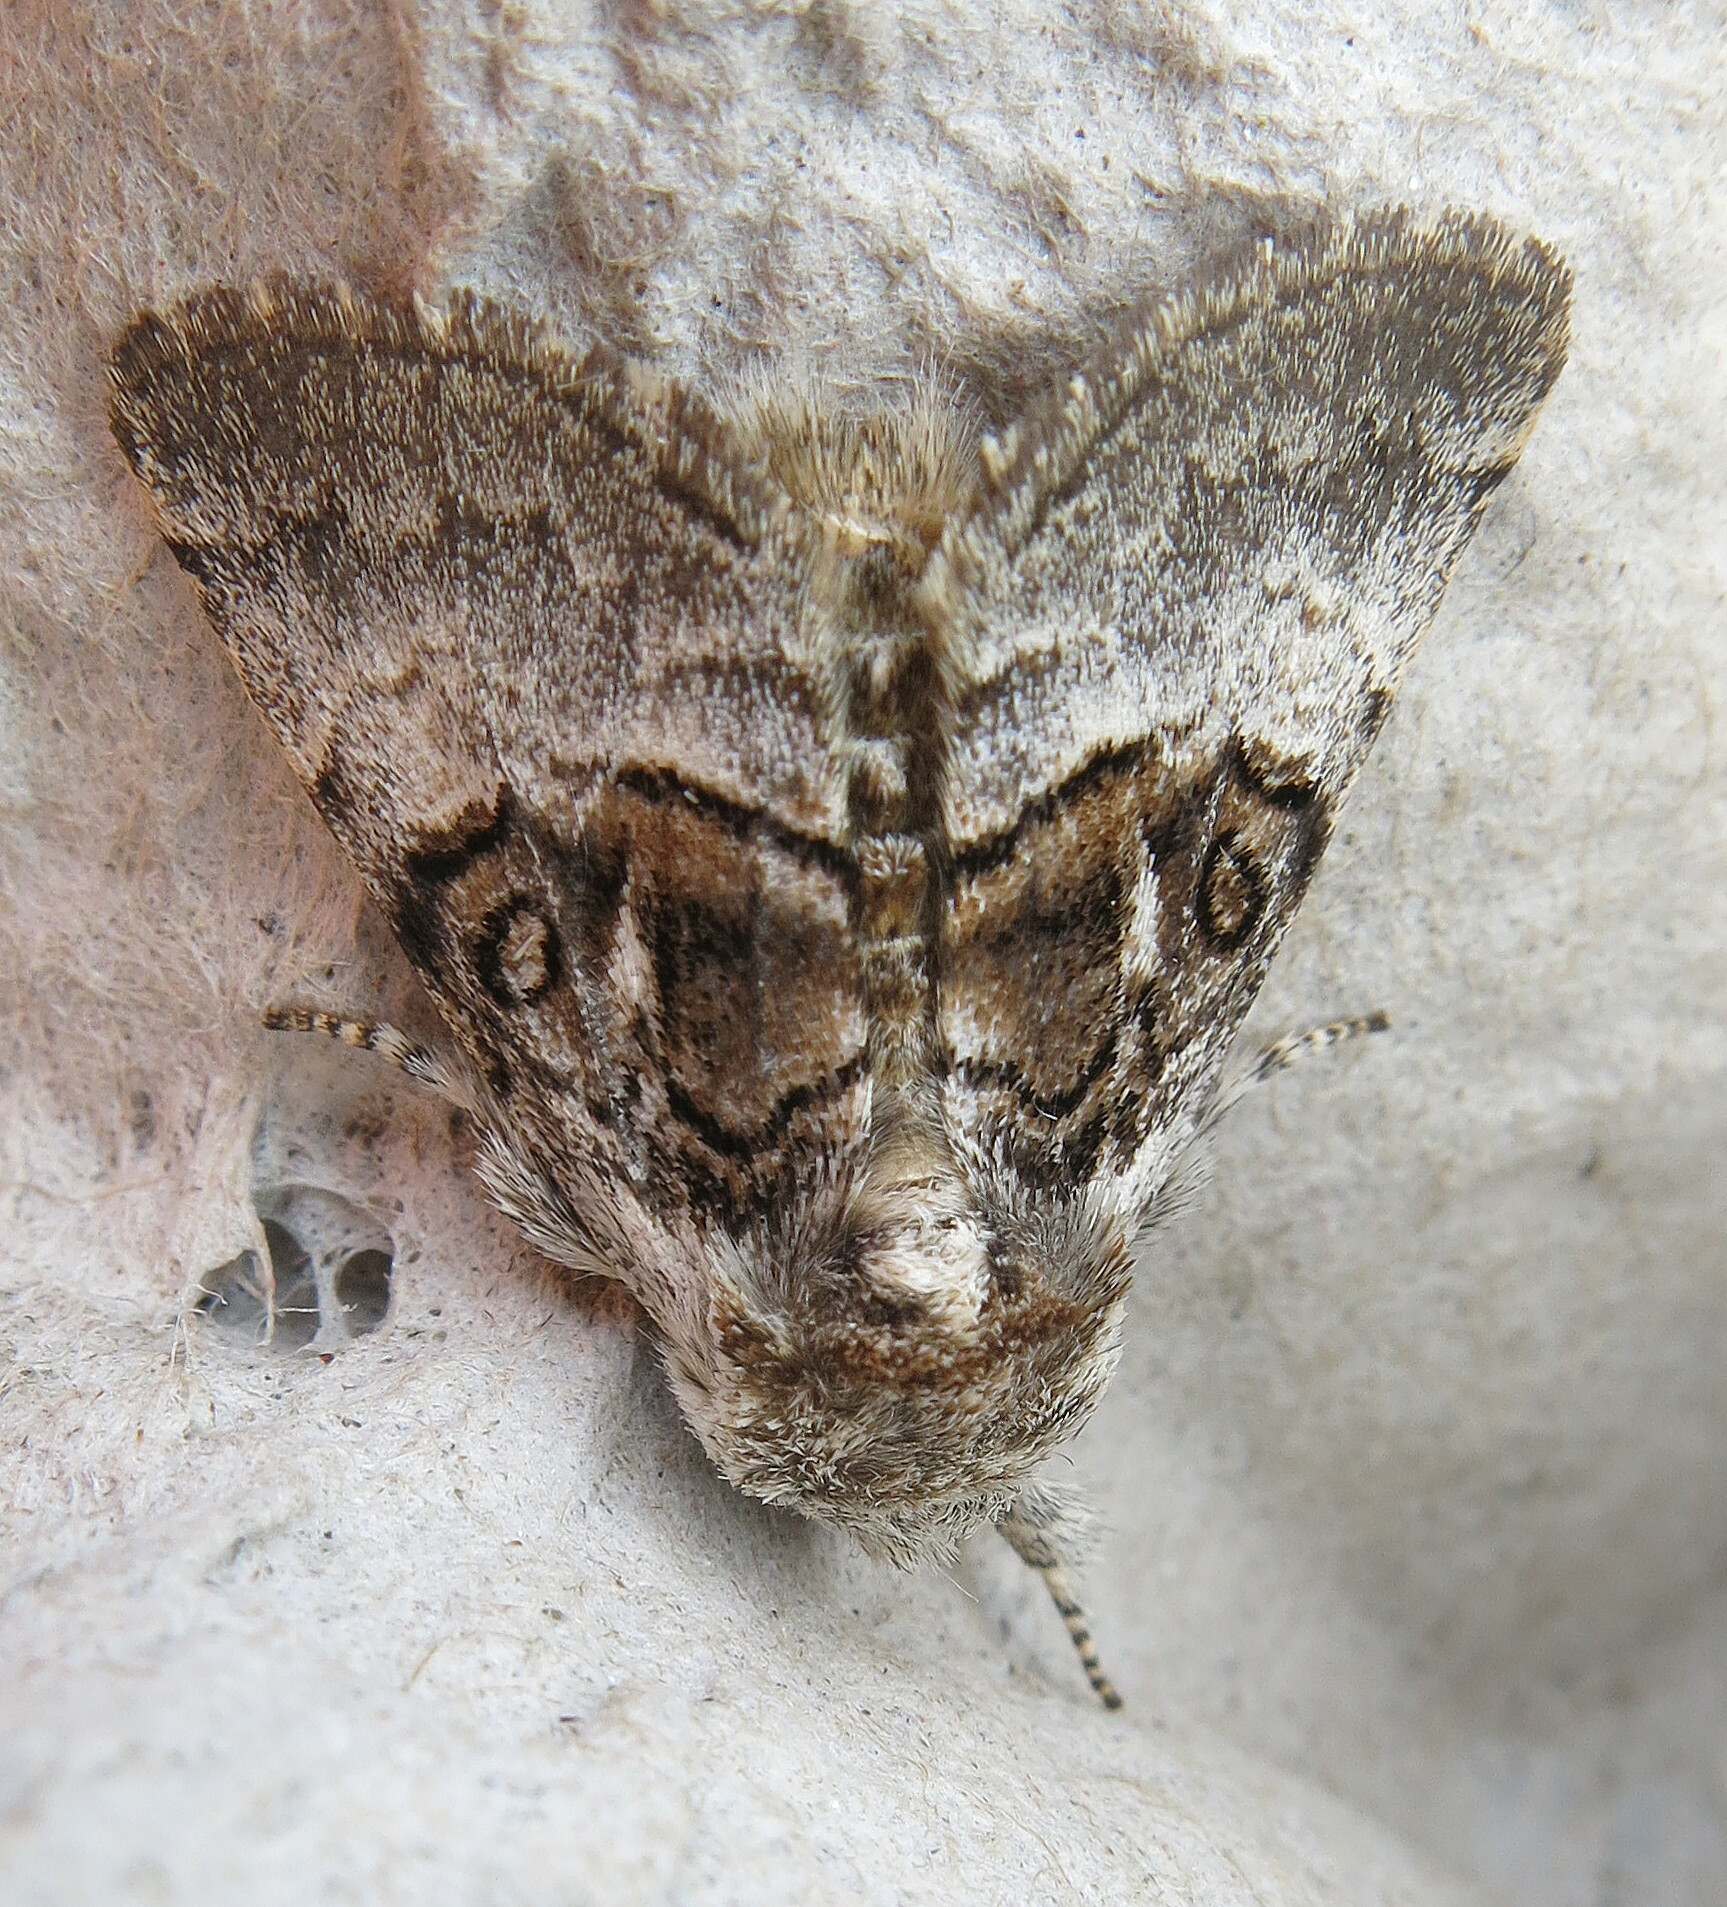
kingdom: Animalia
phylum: Arthropoda
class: Insecta
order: Lepidoptera
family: Noctuidae
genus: Colocasia
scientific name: Colocasia coryli
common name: Nut-tree tussock
